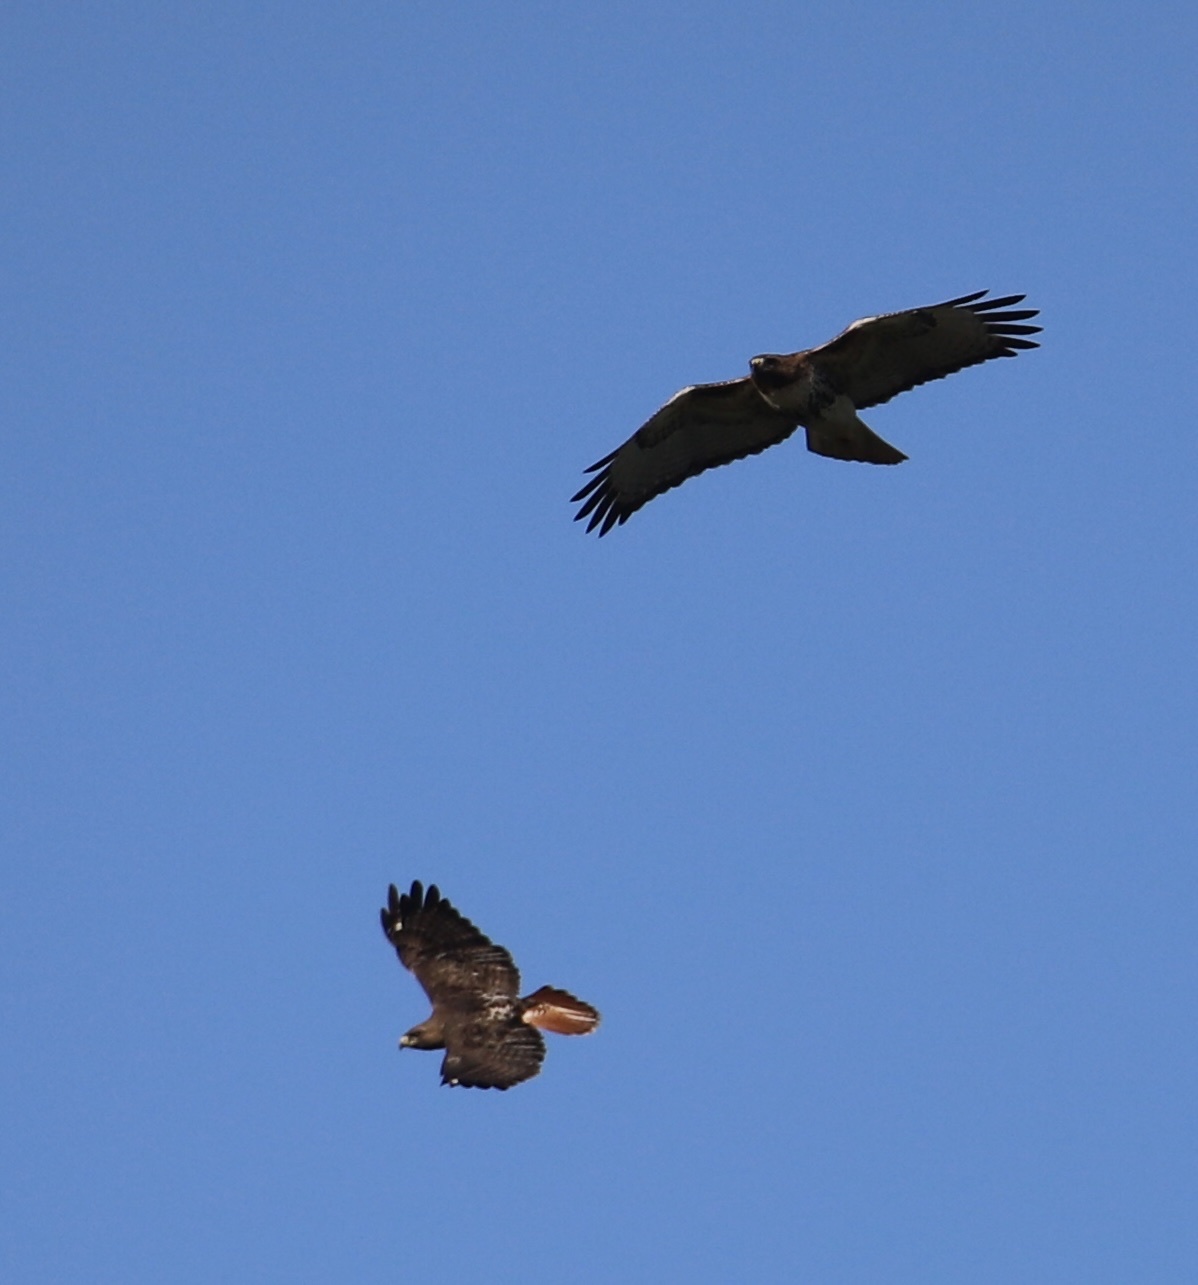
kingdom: Animalia
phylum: Chordata
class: Aves
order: Accipitriformes
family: Accipitridae
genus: Buteo
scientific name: Buteo jamaicensis
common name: Red-tailed hawk
